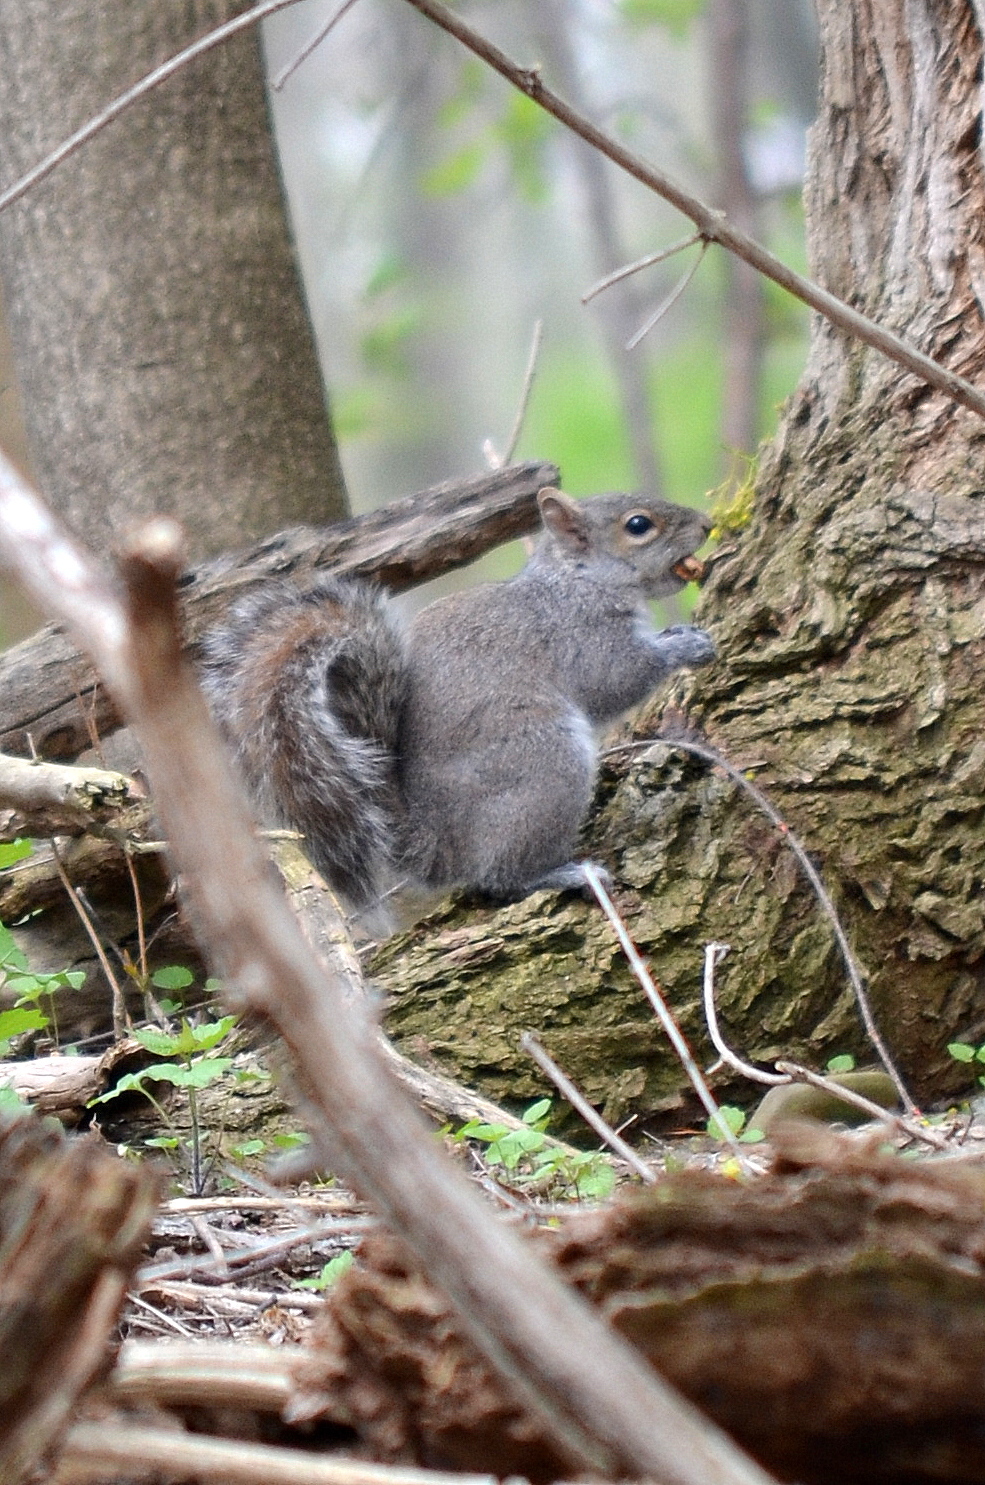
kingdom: Animalia
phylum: Chordata
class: Mammalia
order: Rodentia
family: Sciuridae
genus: Sciurus
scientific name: Sciurus carolinensis
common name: Eastern gray squirrel
